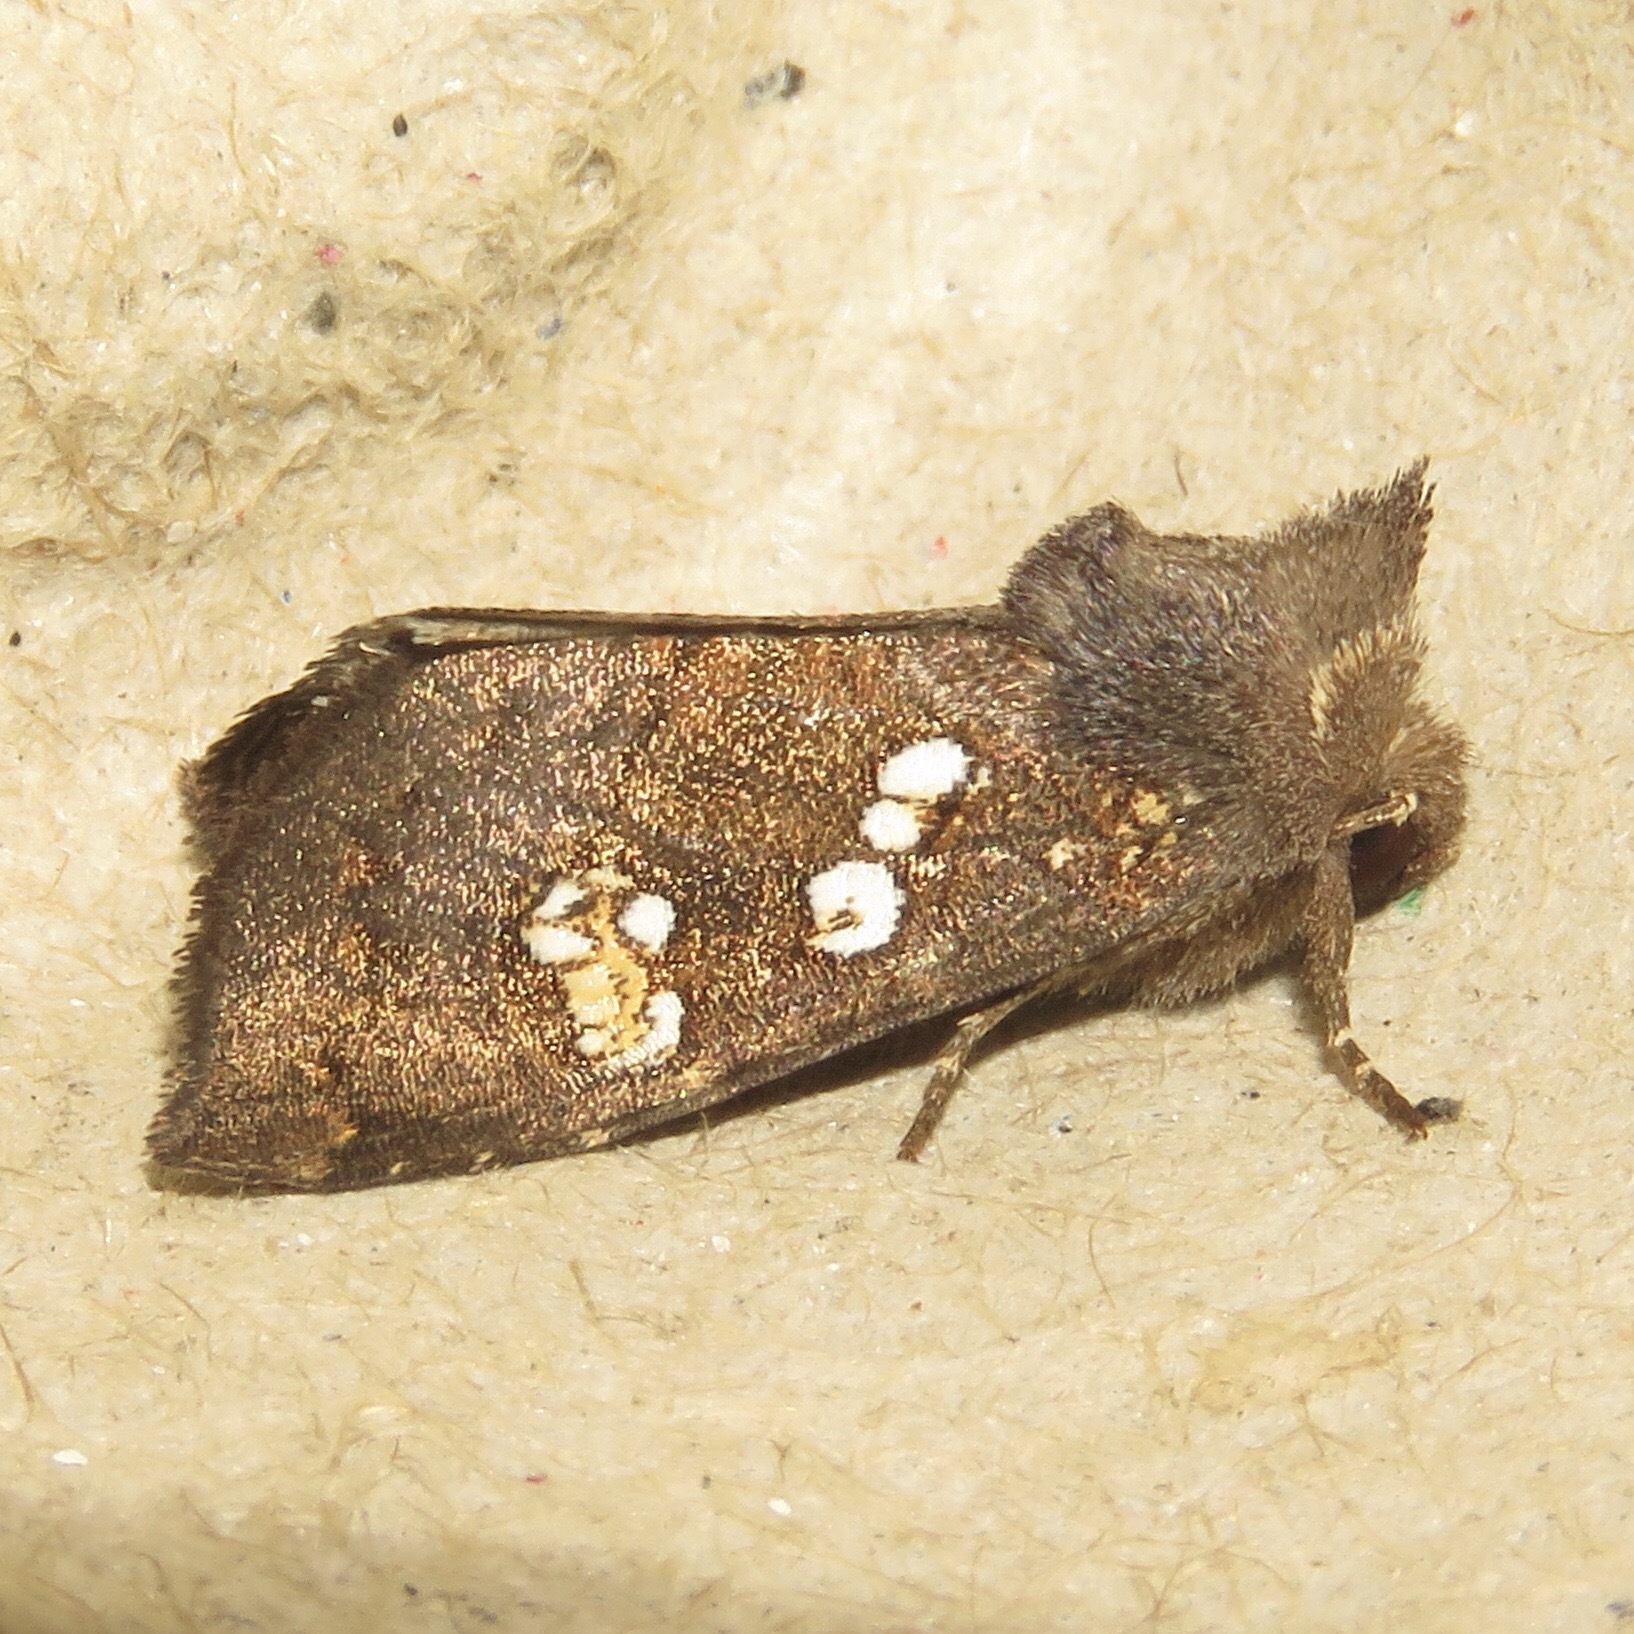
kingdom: Animalia
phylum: Arthropoda
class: Insecta
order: Lepidoptera
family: Noctuidae
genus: Papaipema
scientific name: Papaipema nelita
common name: Coneflower borer moth
